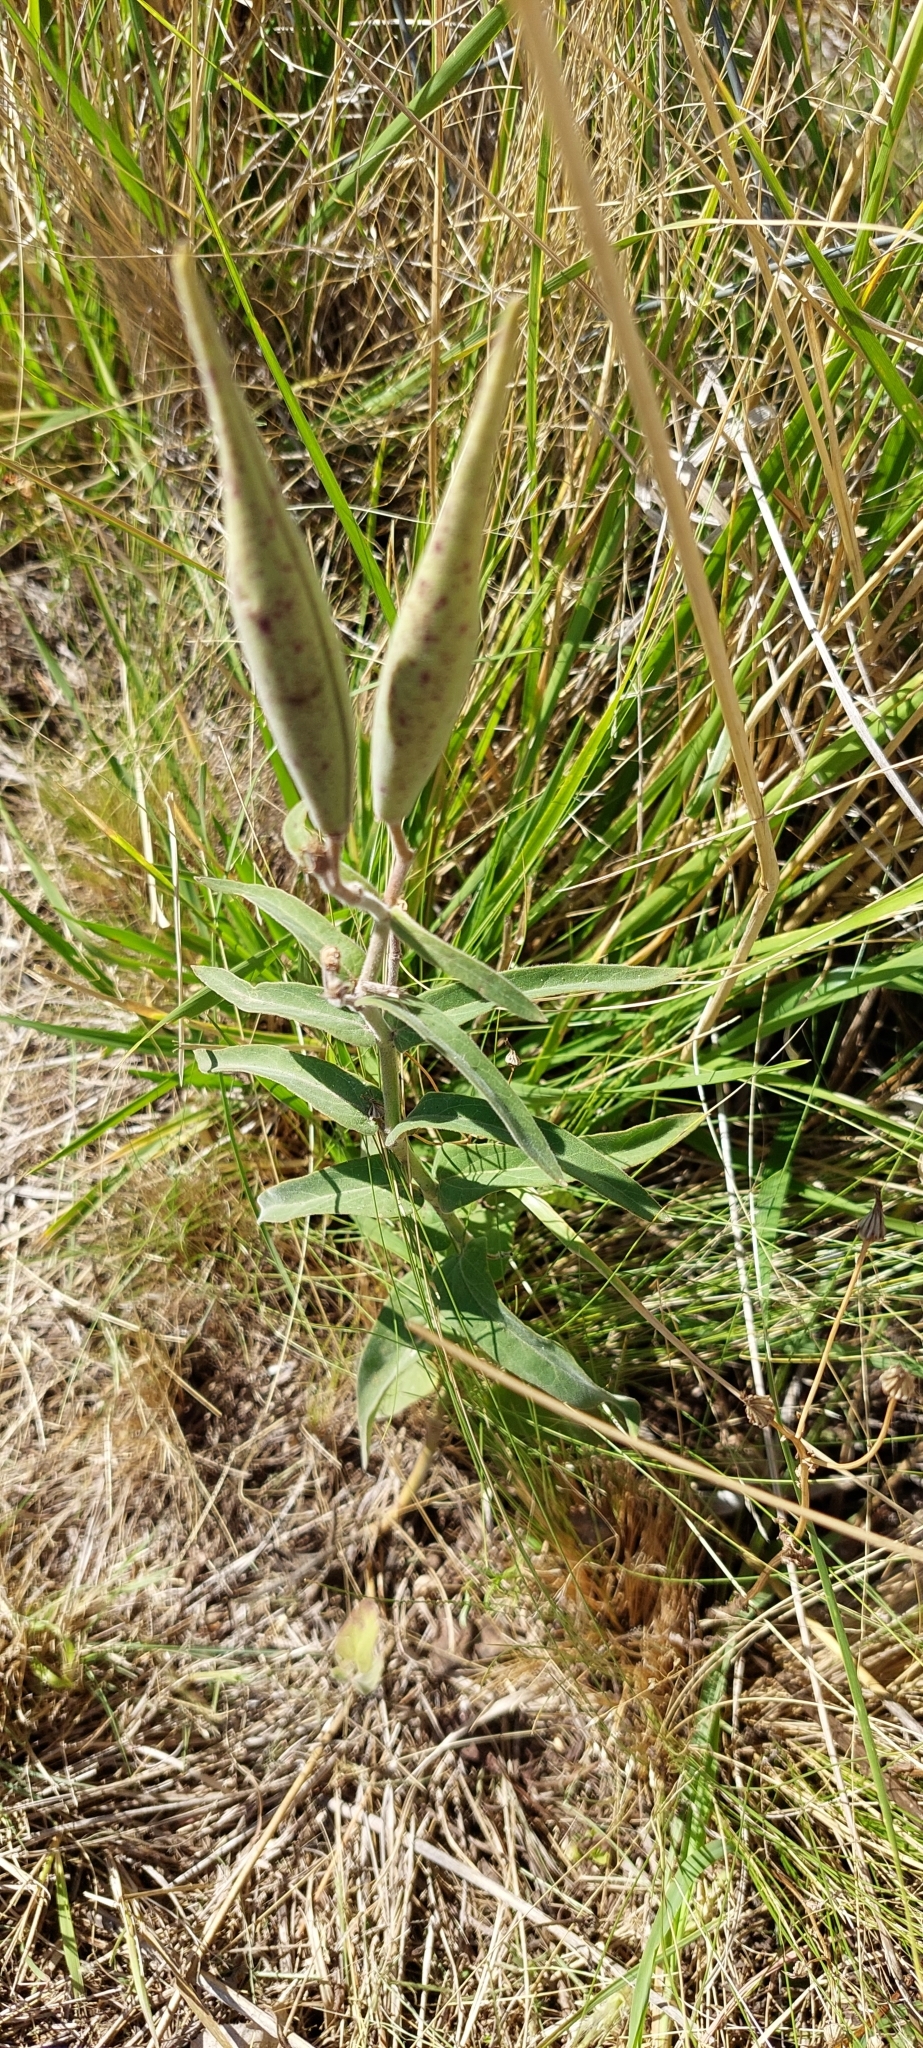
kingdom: Plantae
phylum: Tracheophyta
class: Magnoliopsida
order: Gentianales
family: Apocynaceae
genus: Oxypetalum
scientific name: Oxypetalum solanoides
